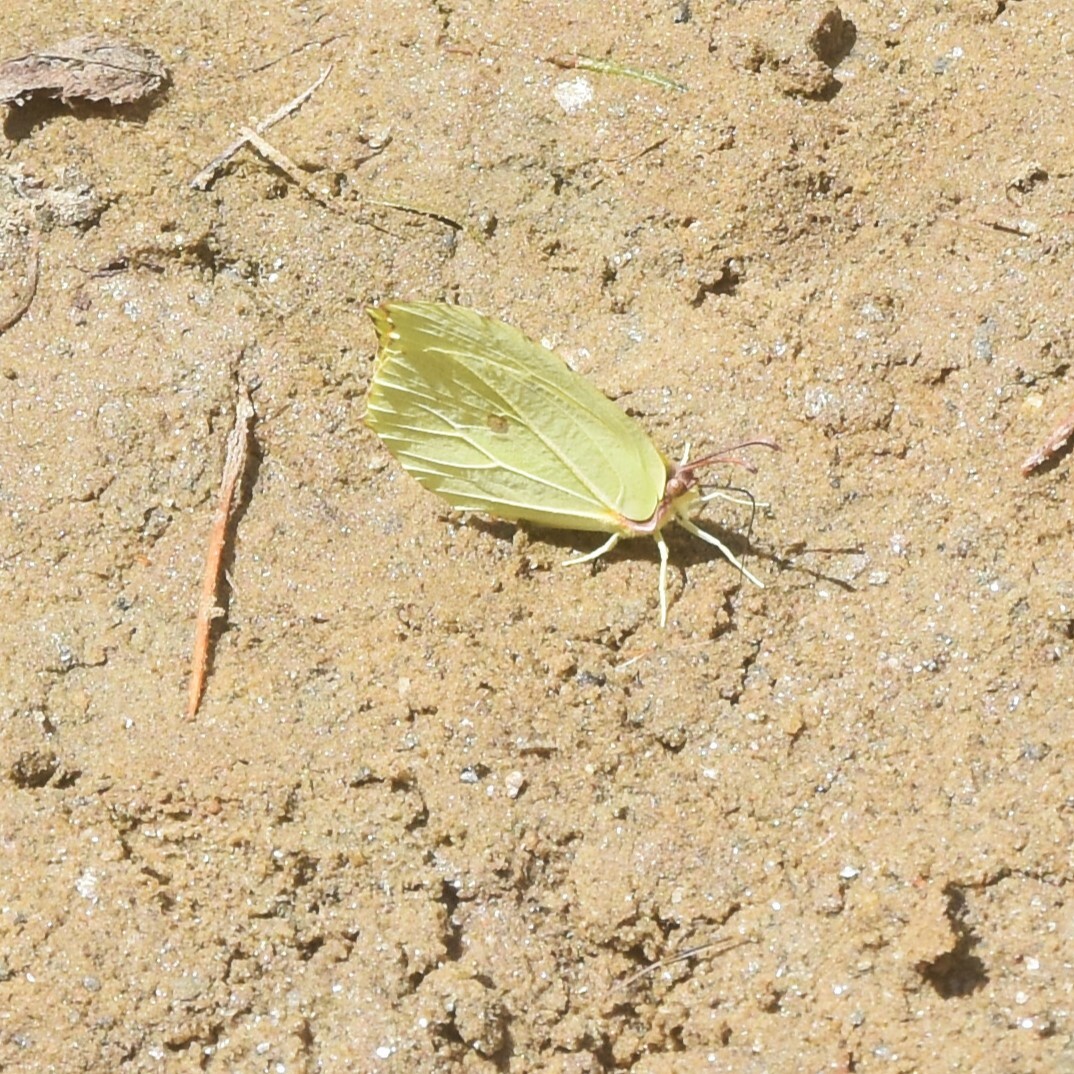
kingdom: Animalia
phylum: Arthropoda
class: Insecta
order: Lepidoptera
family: Pieridae
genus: Gonepteryx
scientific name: Gonepteryx
